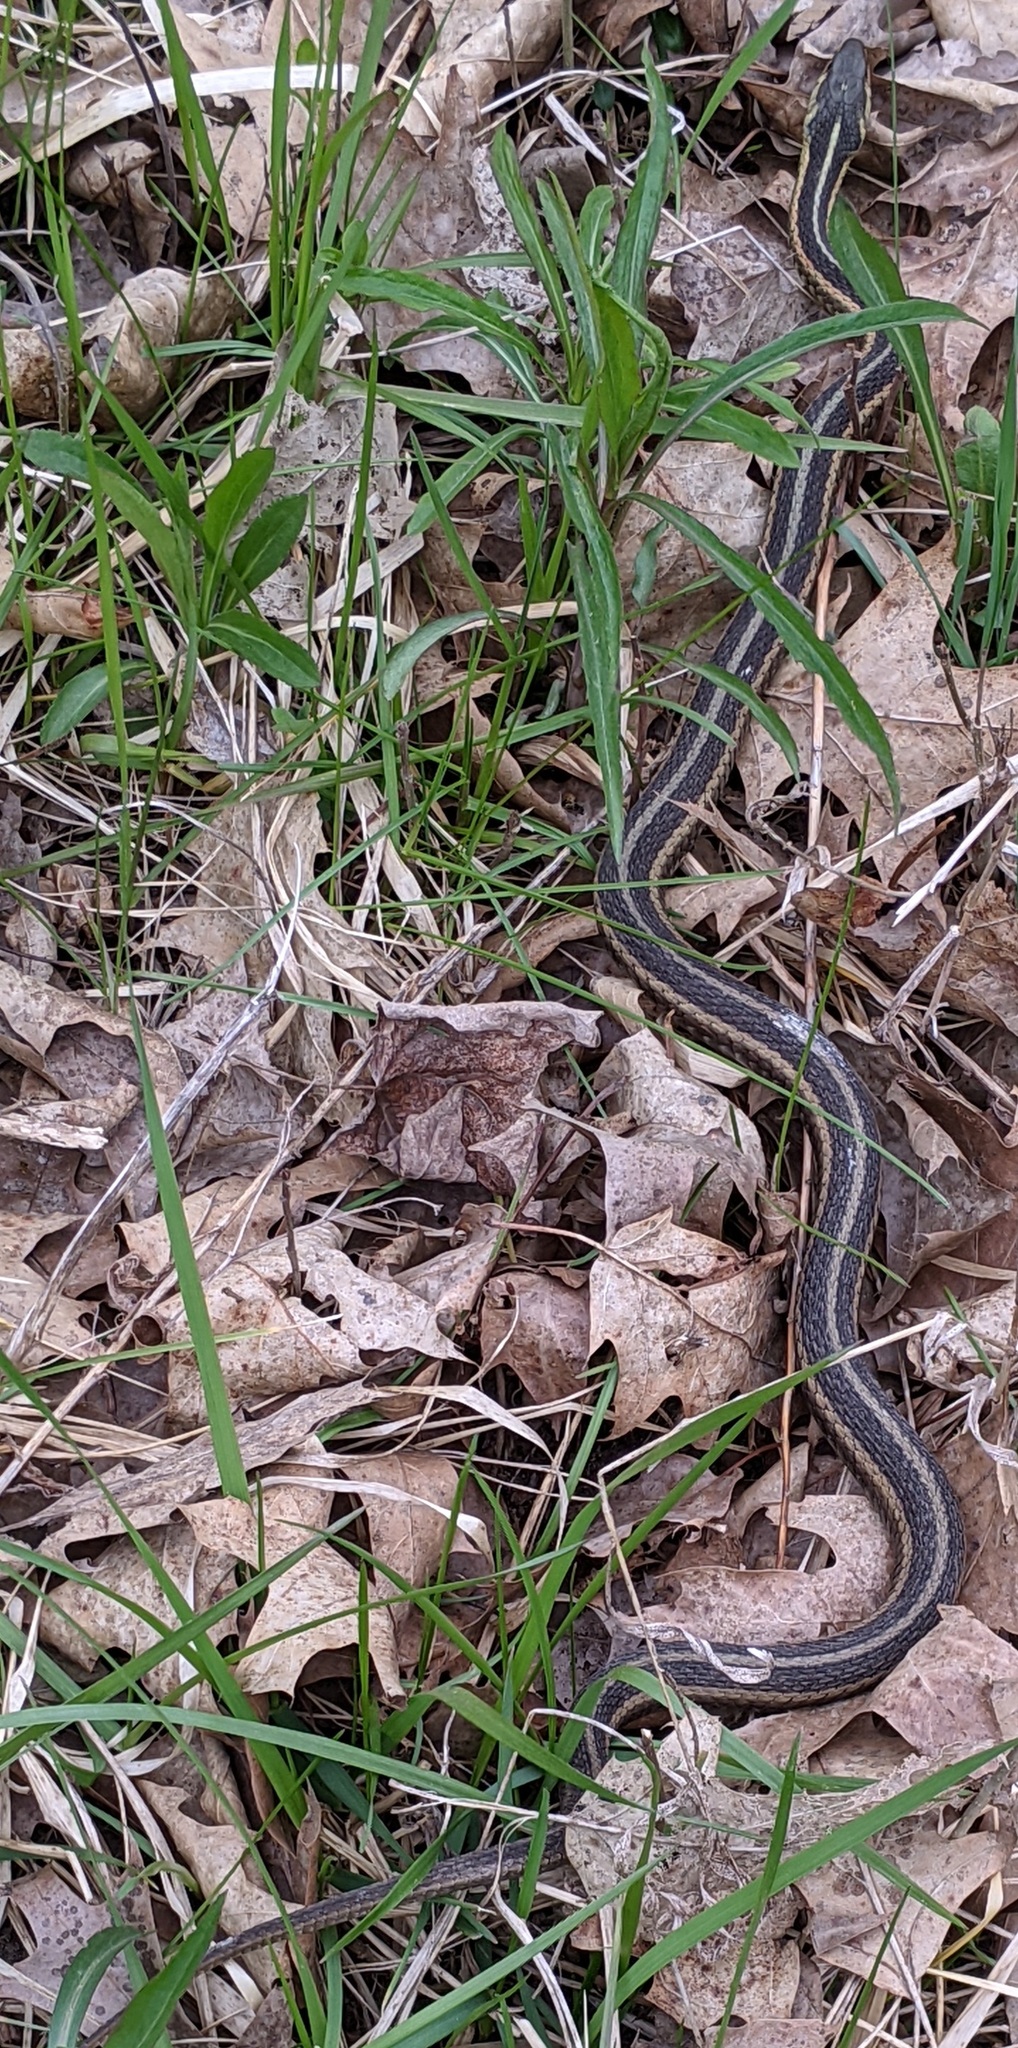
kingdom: Animalia
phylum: Chordata
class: Squamata
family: Colubridae
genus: Thamnophis
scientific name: Thamnophis sirtalis
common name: Common garter snake
